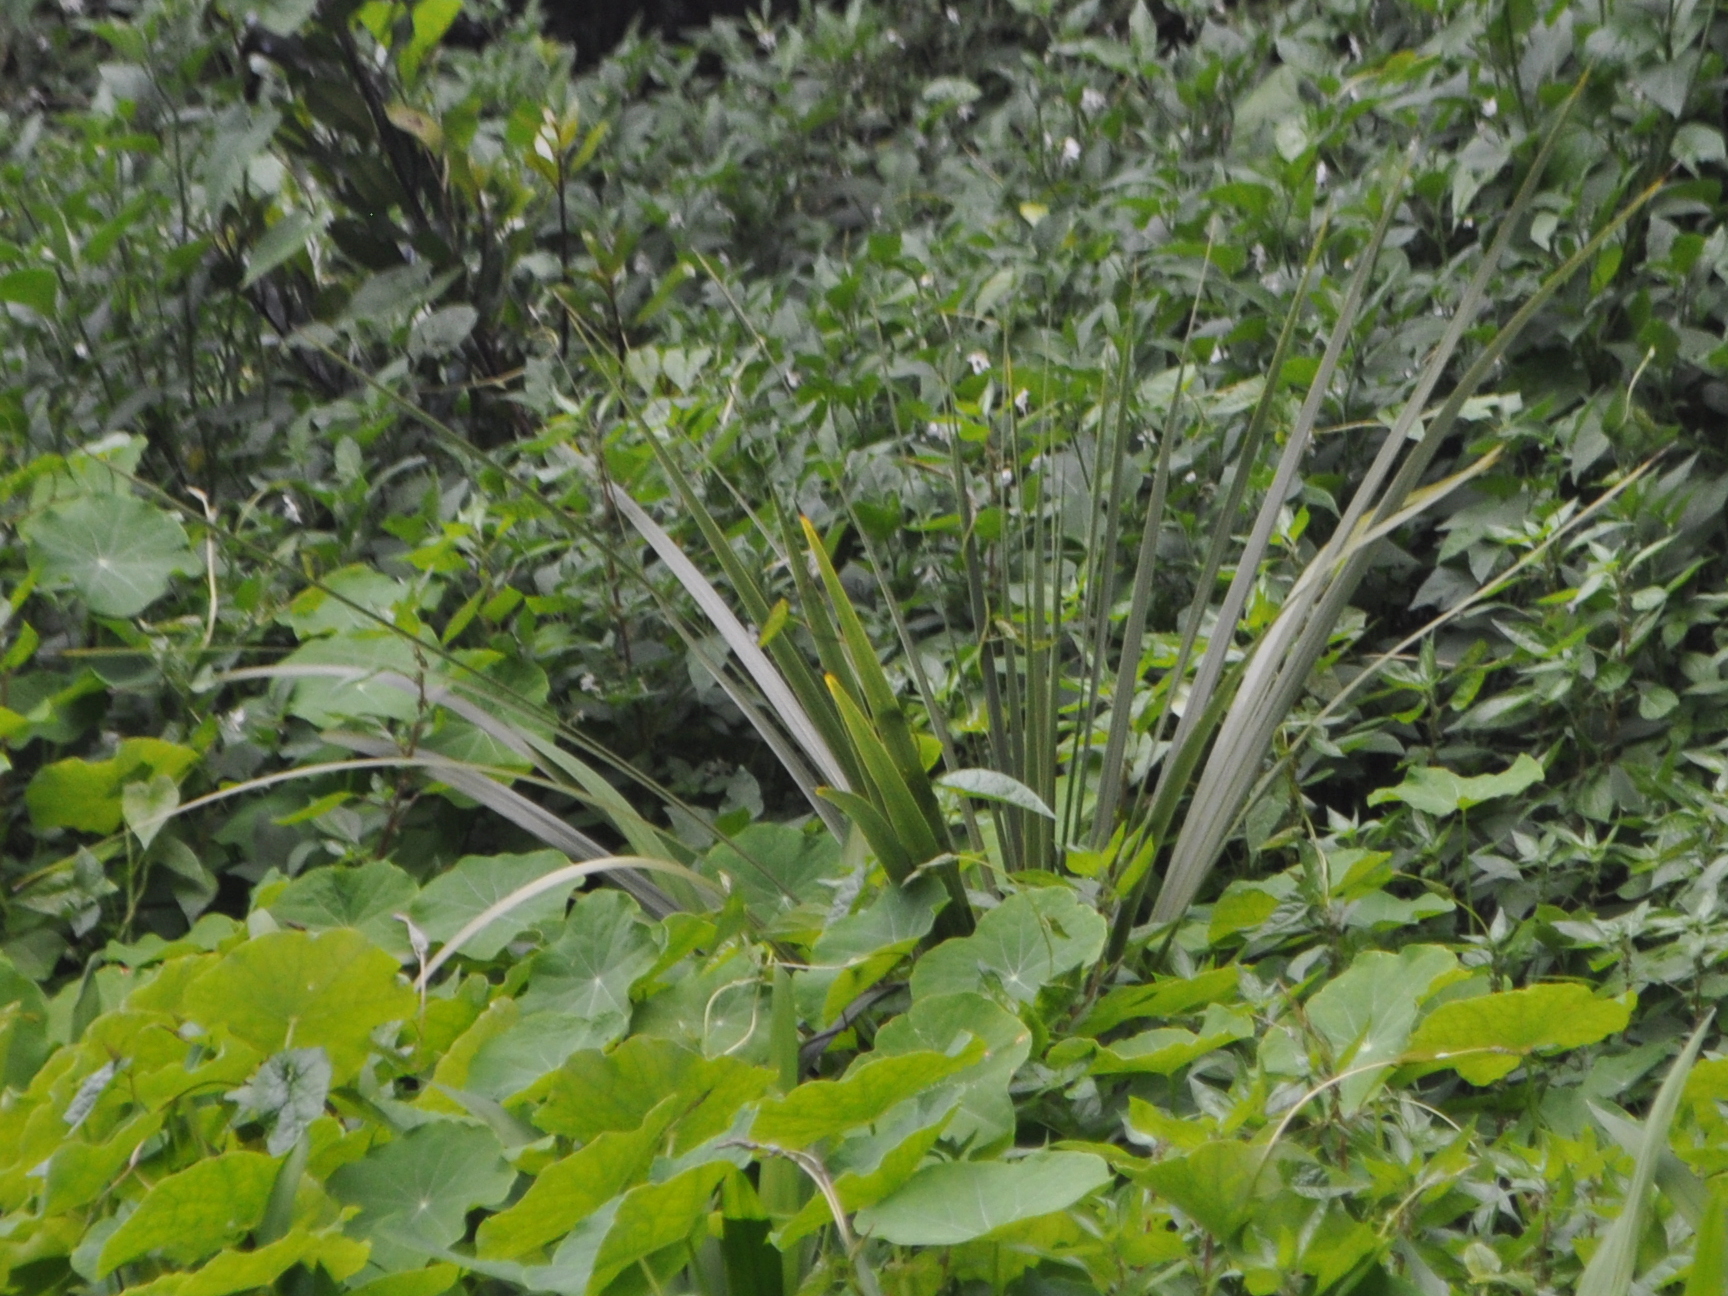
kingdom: Plantae
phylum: Tracheophyta
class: Liliopsida
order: Asparagales
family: Asparagaceae
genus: Cordyline
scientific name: Cordyline australis
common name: Cabbage-palm
